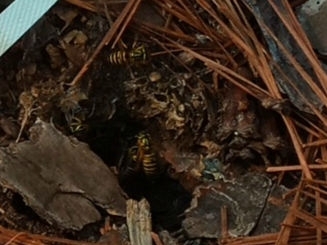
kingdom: Animalia
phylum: Arthropoda
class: Insecta
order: Hymenoptera
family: Vespidae
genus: Vespula
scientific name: Vespula squamosa
